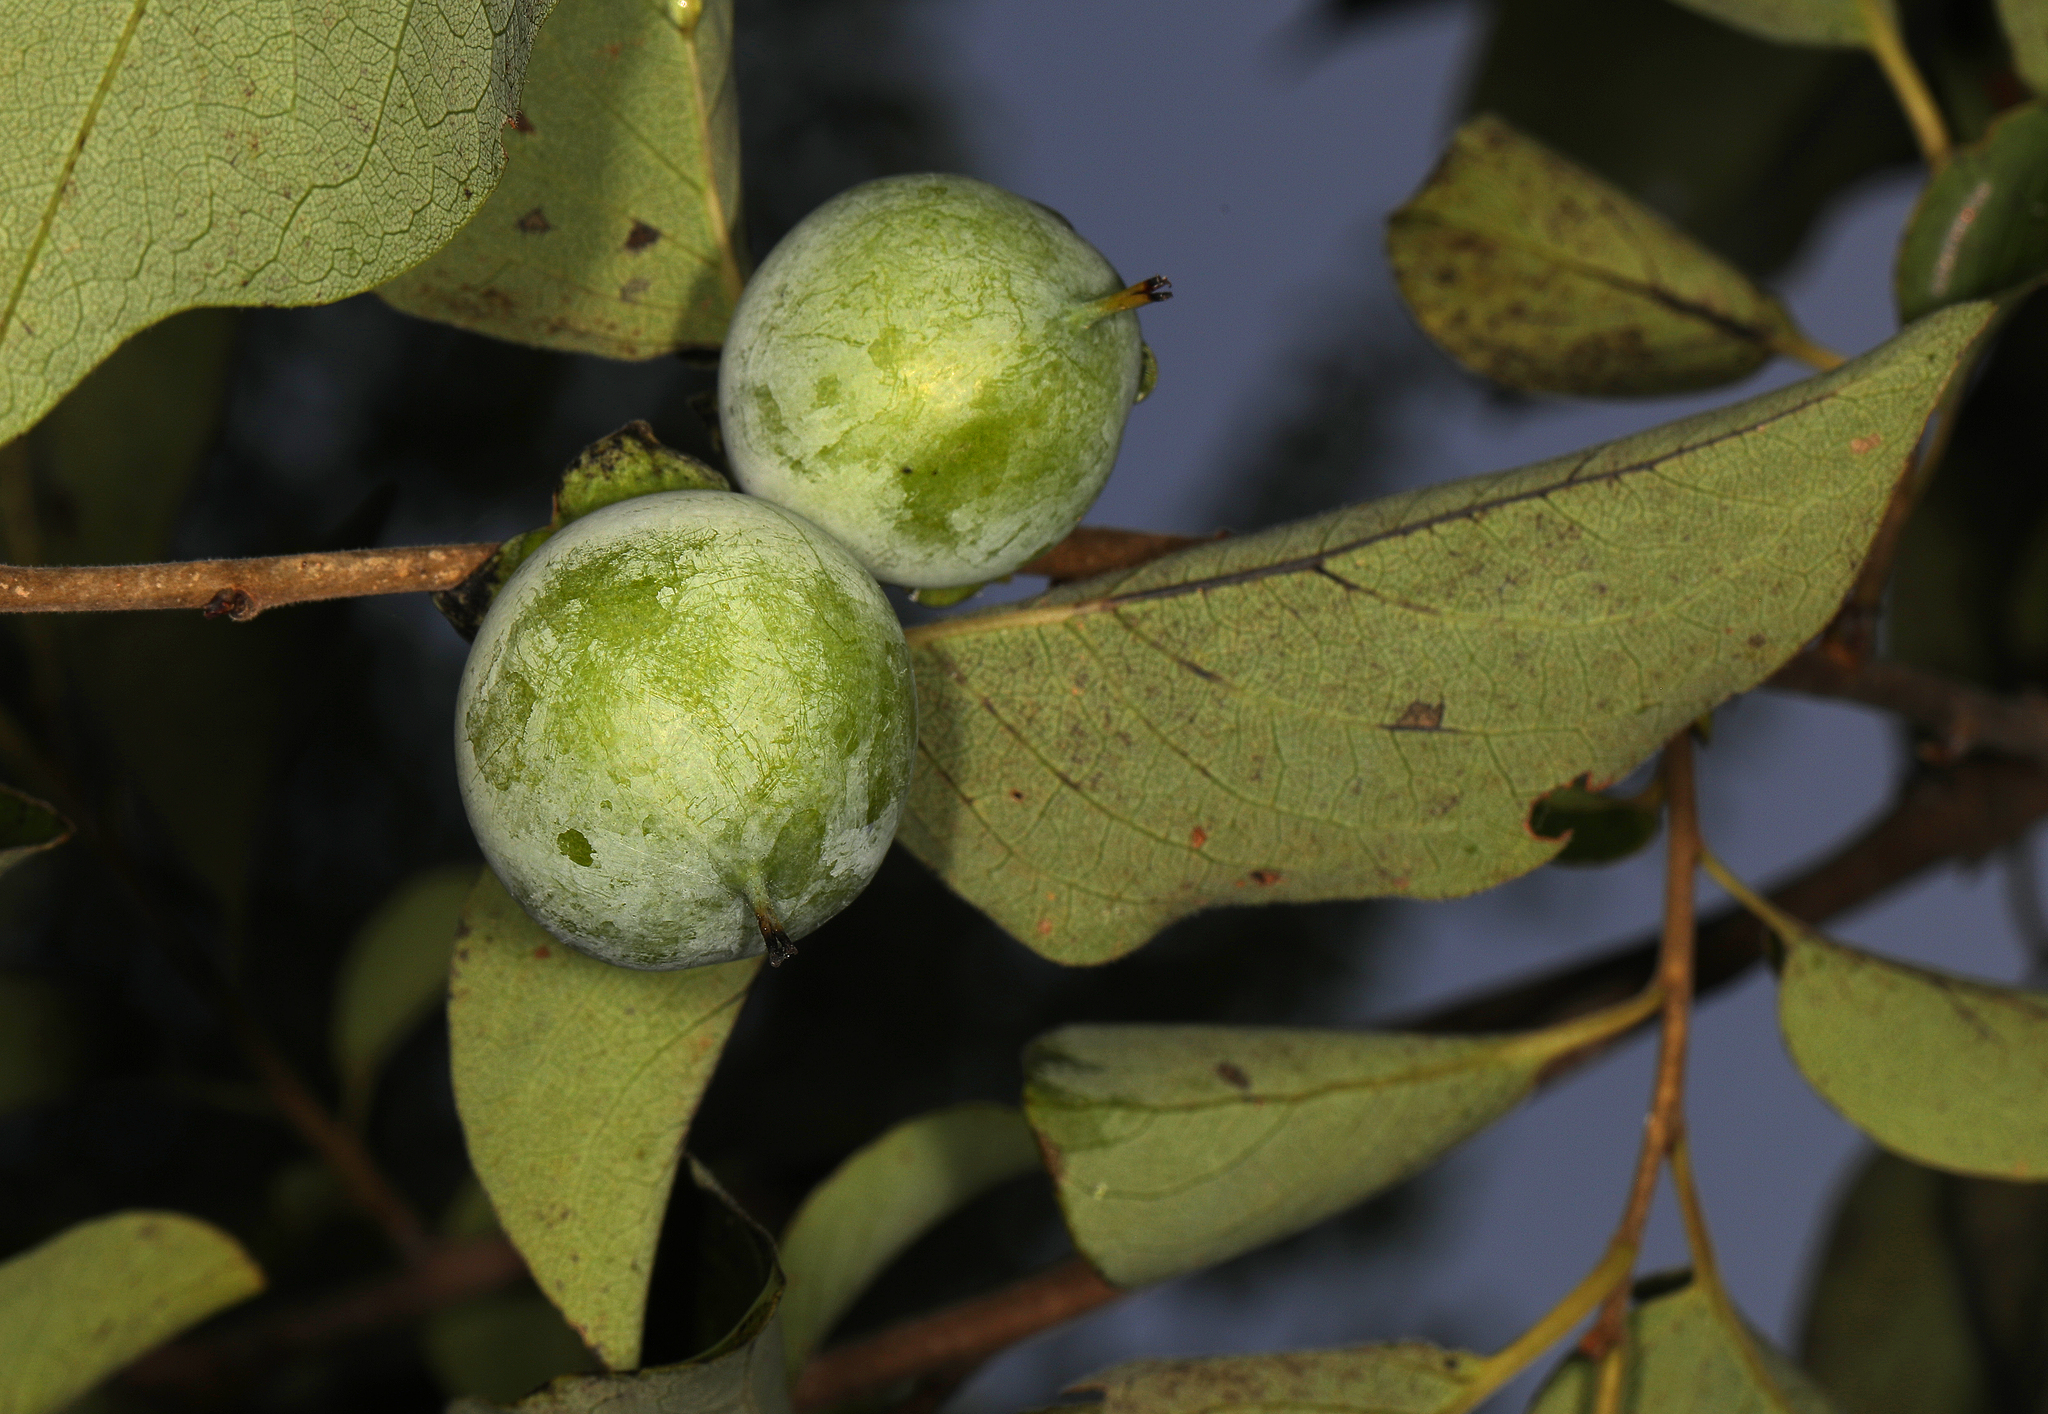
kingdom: Plantae
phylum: Tracheophyta
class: Magnoliopsida
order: Ericales
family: Ebenaceae
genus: Diospyros
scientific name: Diospyros virginiana
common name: Persimmon
